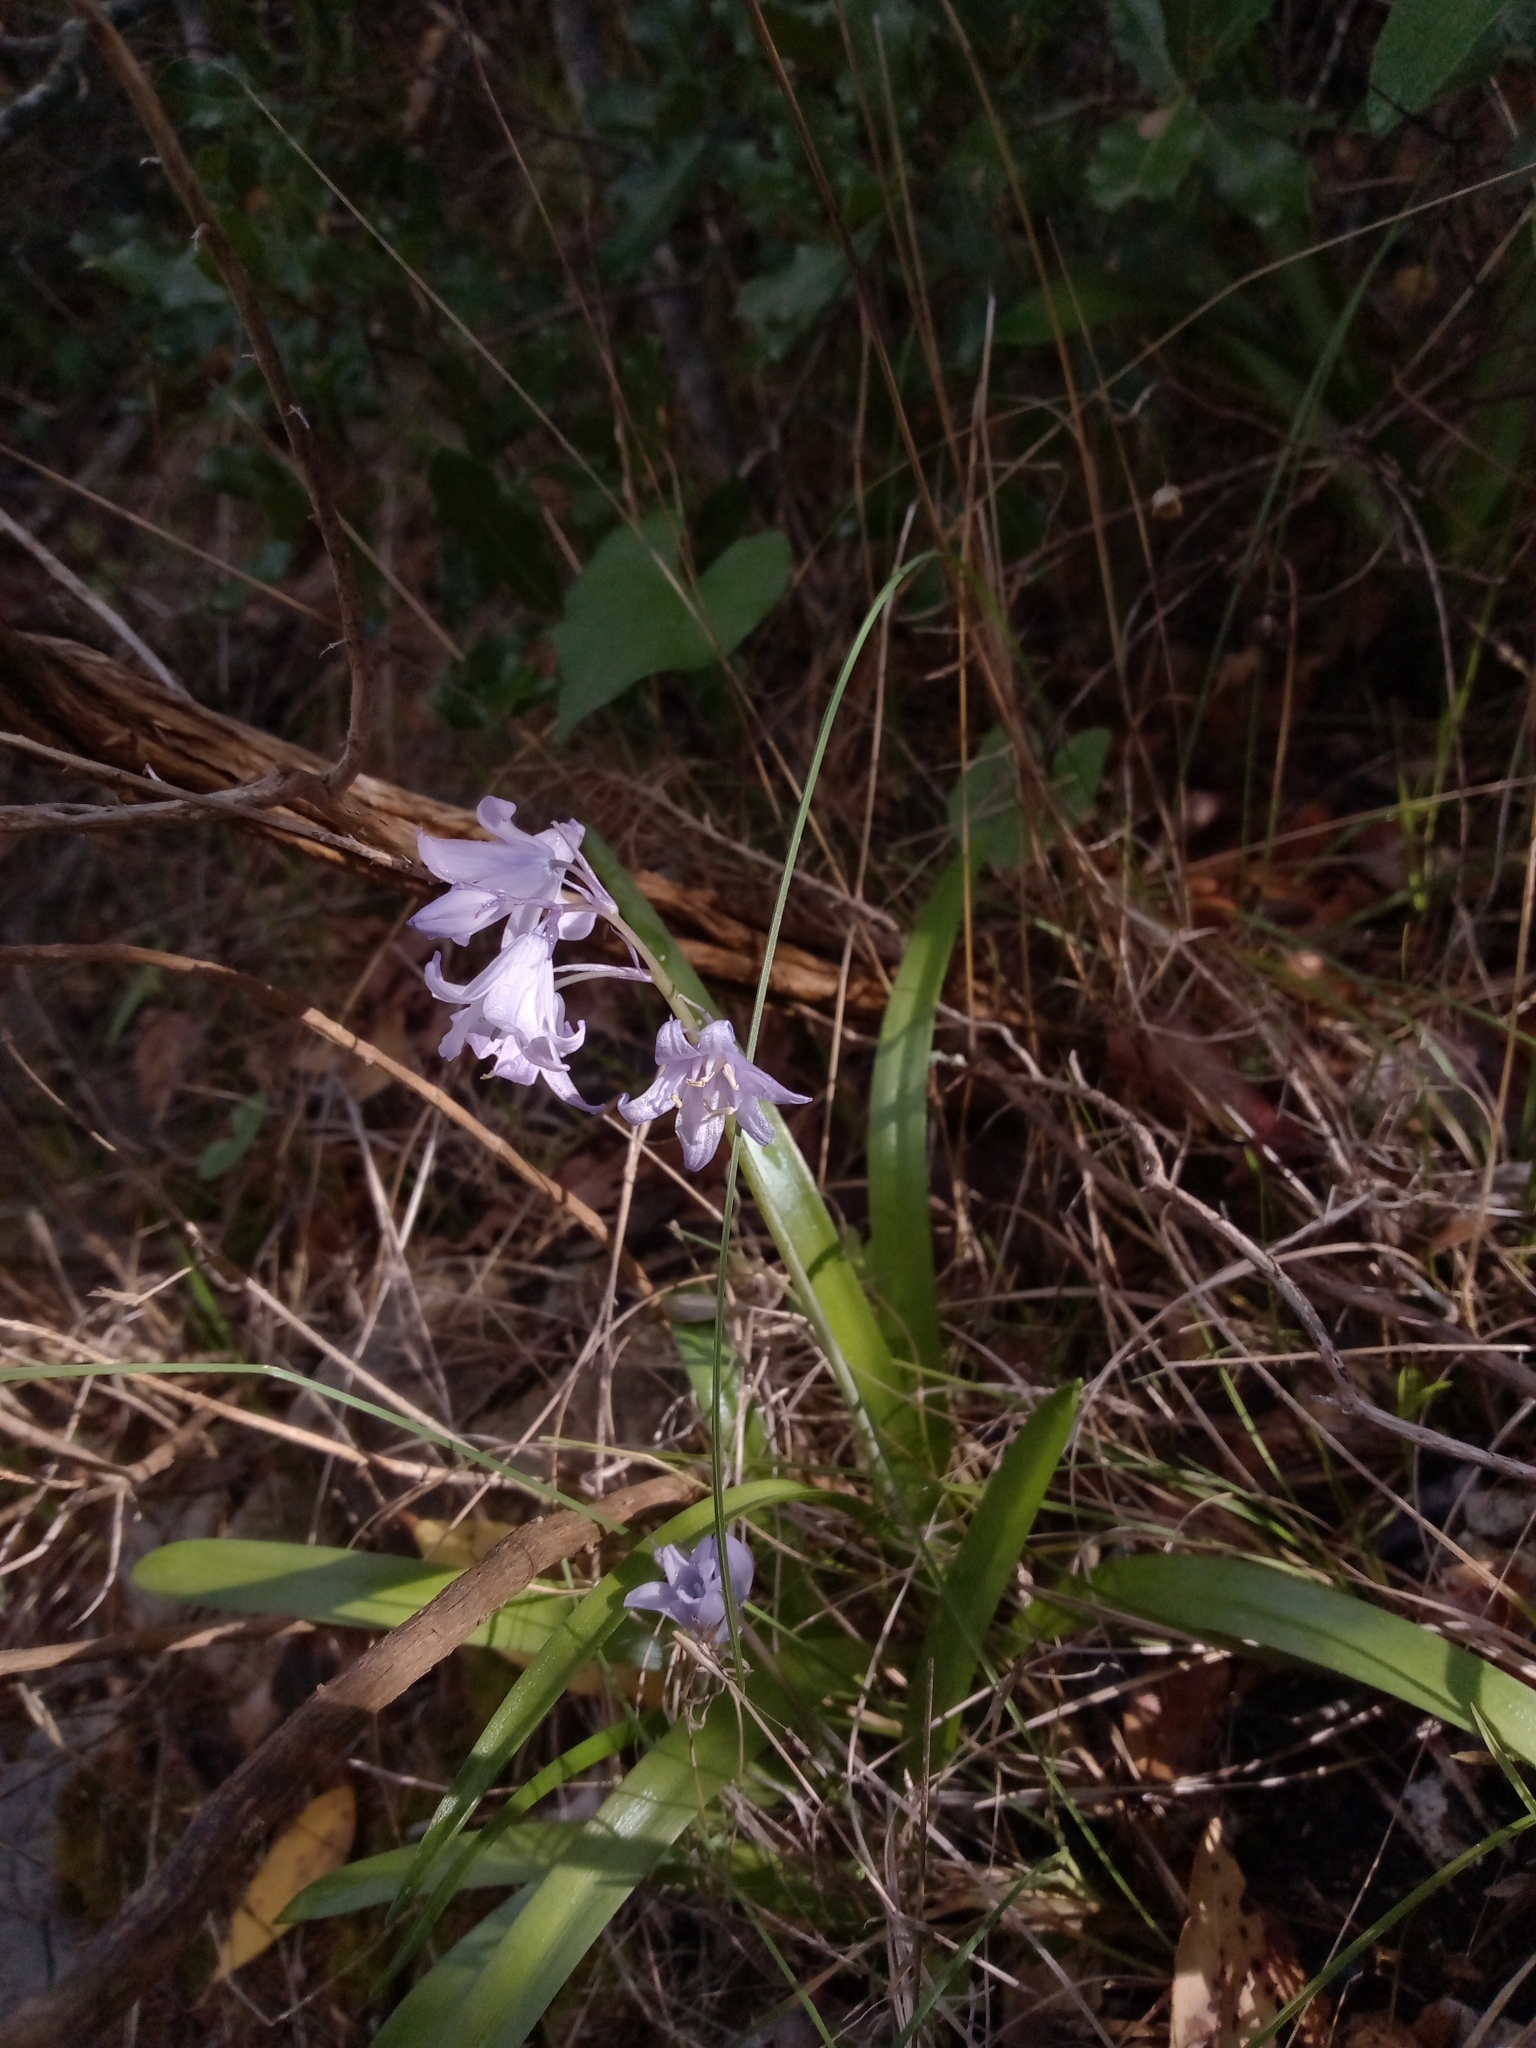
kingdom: Plantae
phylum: Tracheophyta
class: Liliopsida
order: Asparagales
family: Asparagaceae
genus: Hyacinthoides
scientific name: Hyacinthoides hispanica
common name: Spanish bluebell
